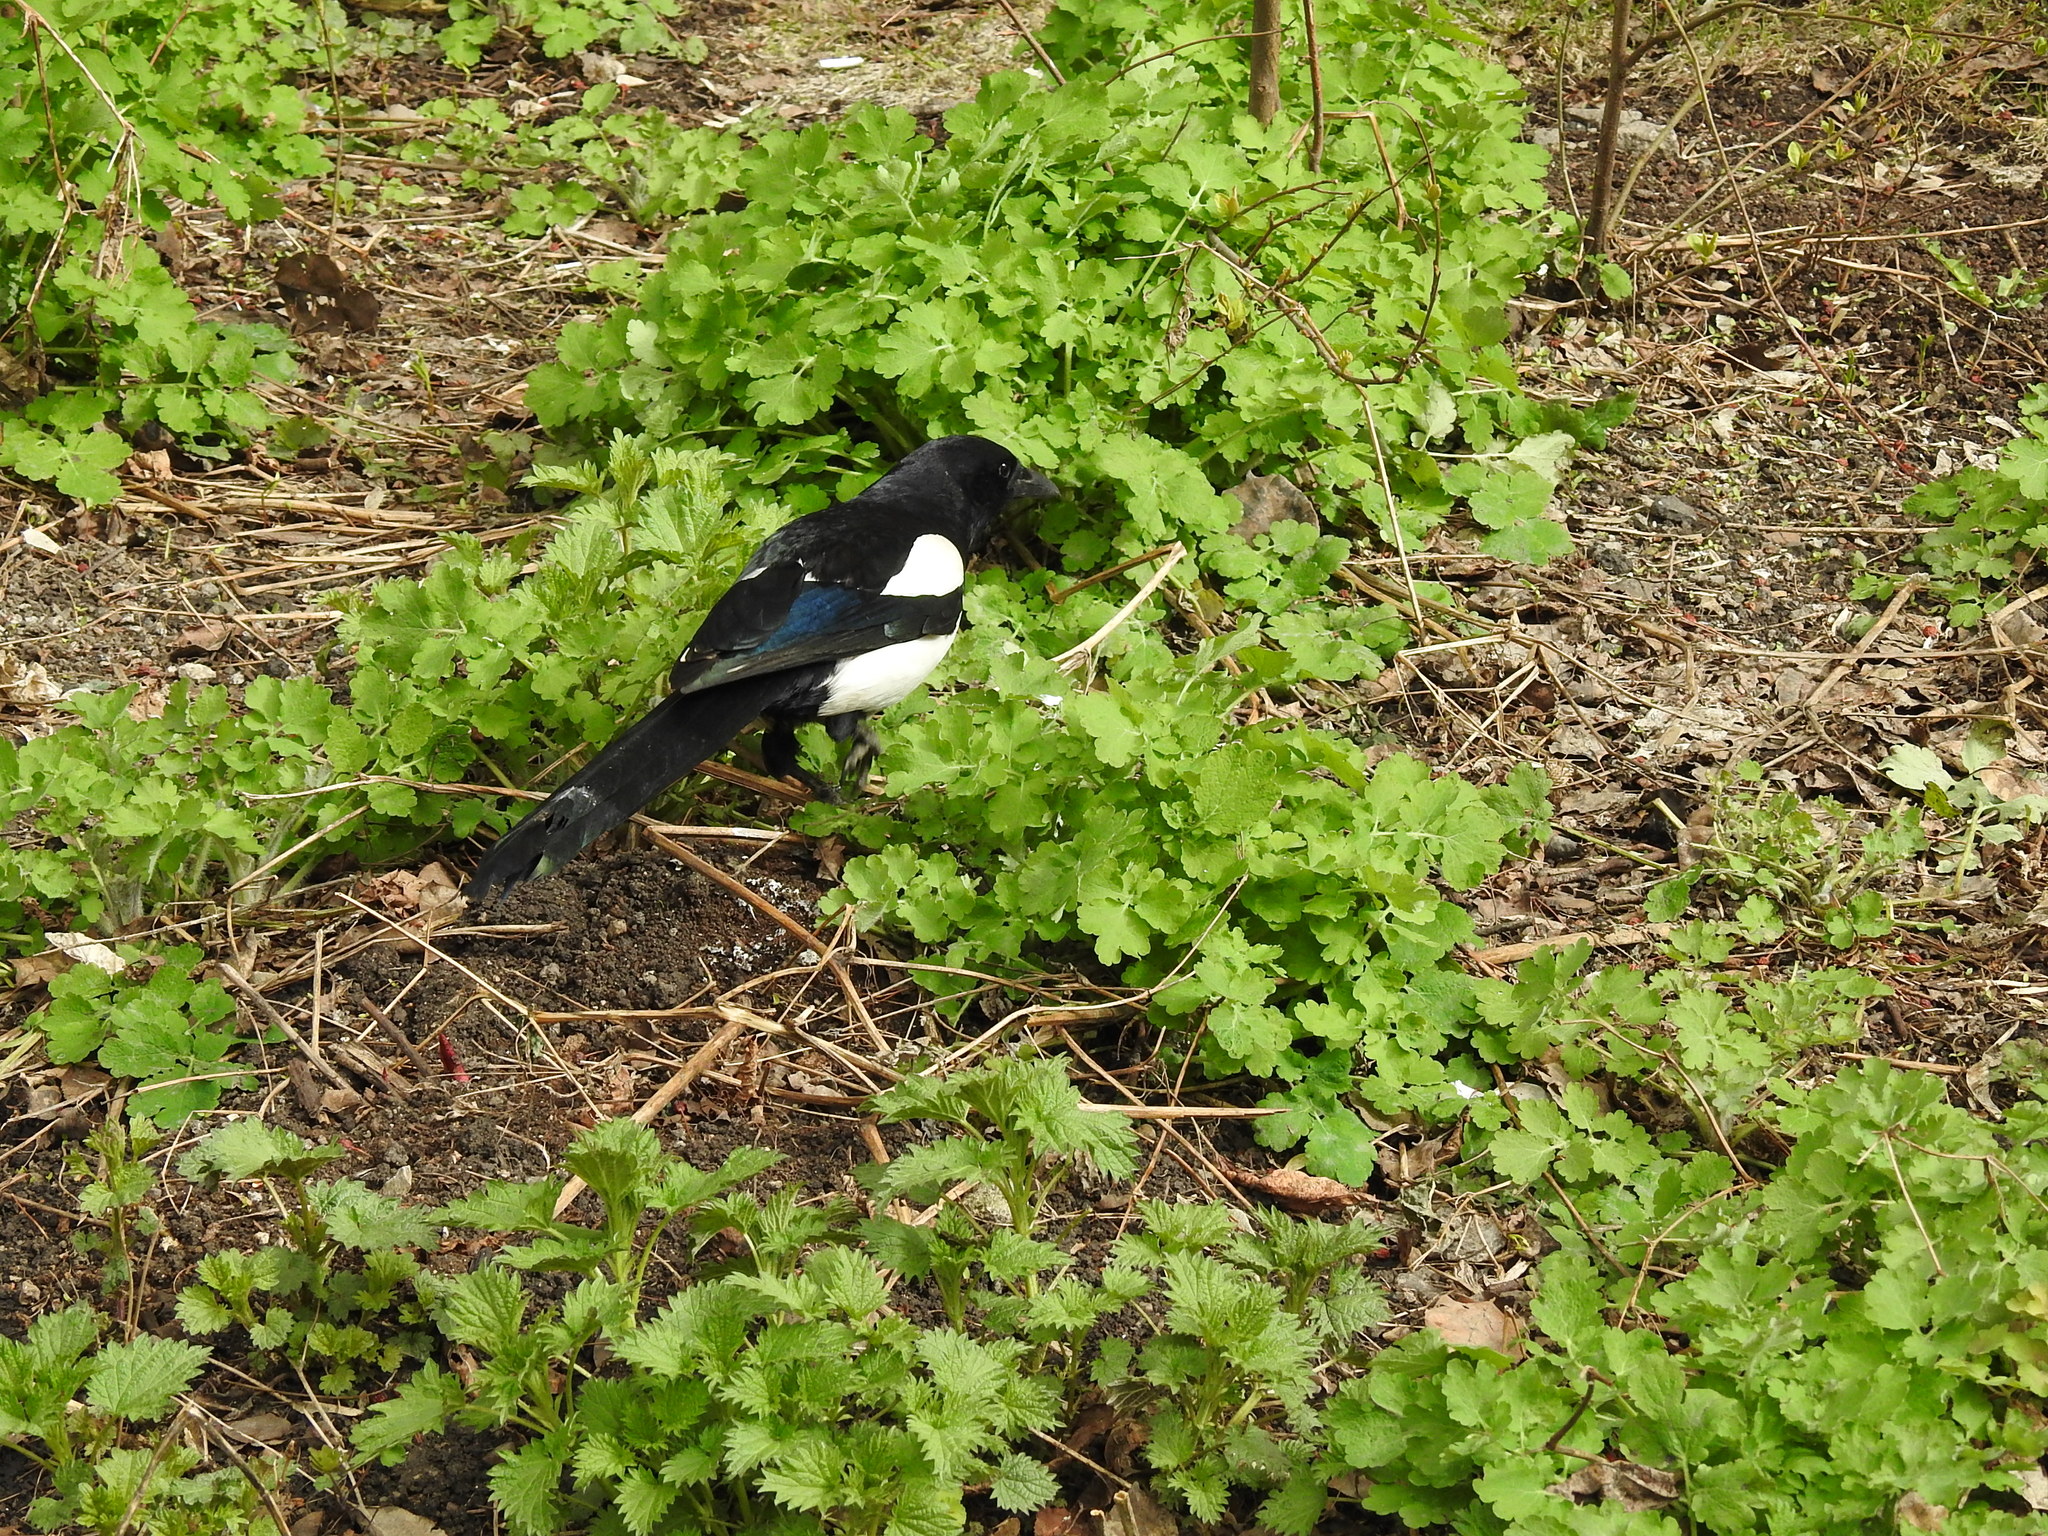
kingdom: Animalia
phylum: Chordata
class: Aves
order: Passeriformes
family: Corvidae
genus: Pica
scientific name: Pica pica
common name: Eurasian magpie
